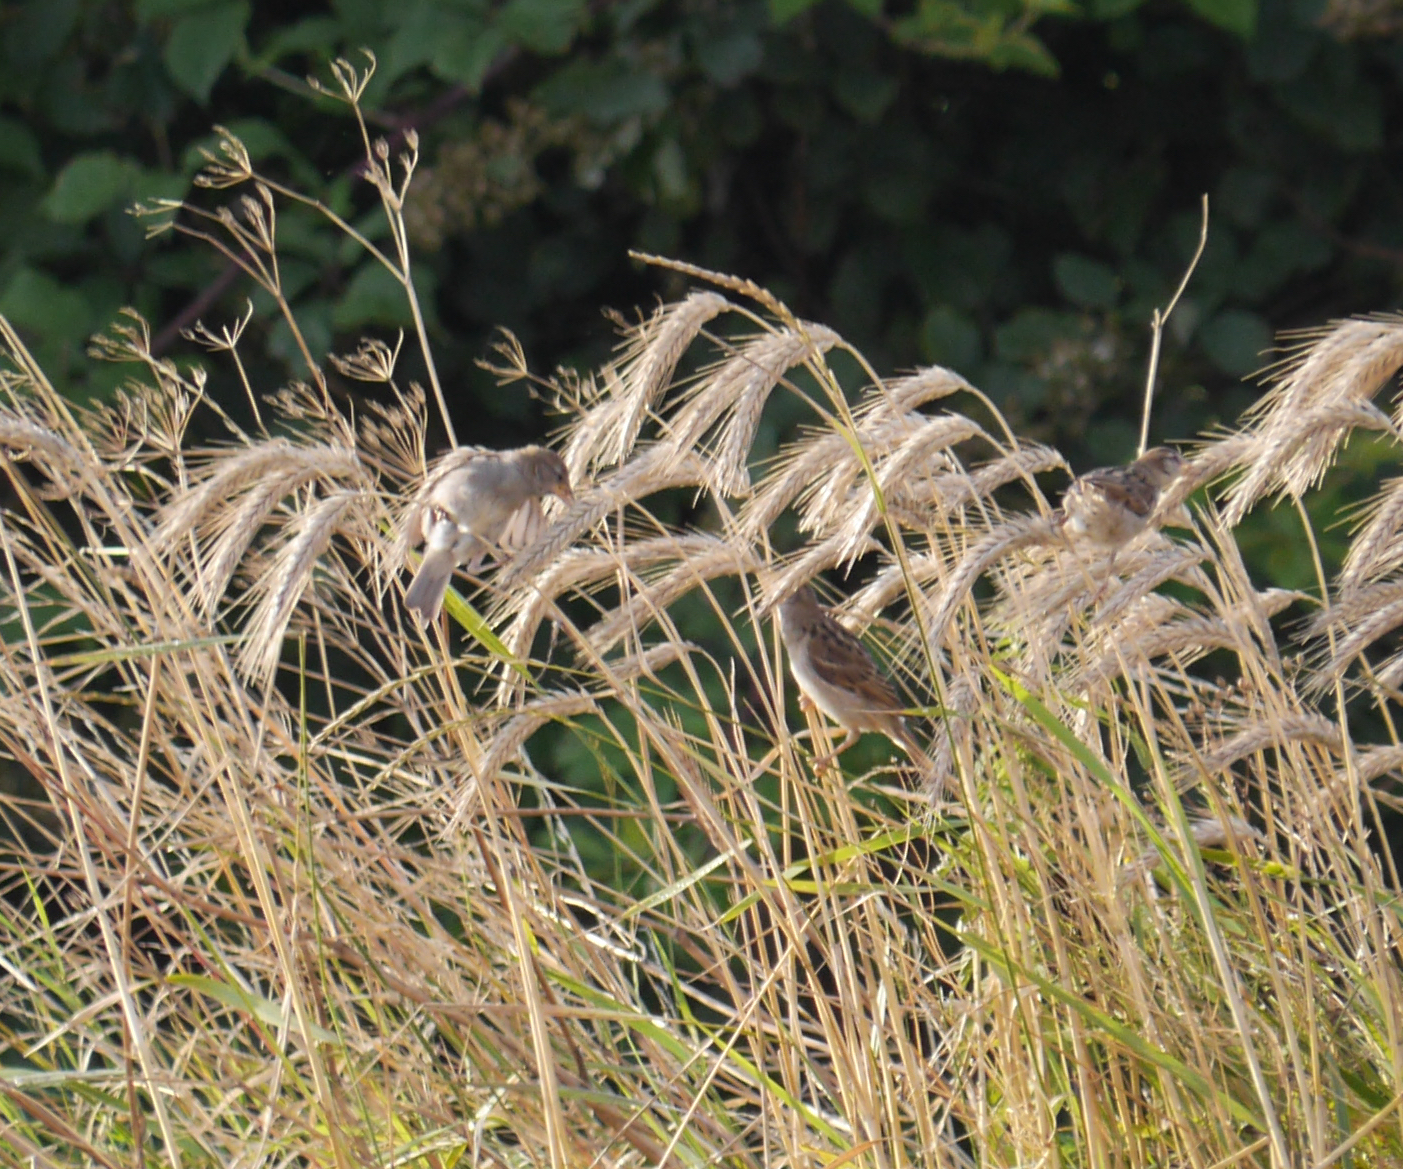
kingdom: Animalia
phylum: Chordata
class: Aves
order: Passeriformes
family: Passeridae
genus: Passer
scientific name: Passer domesticus
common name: House sparrow
